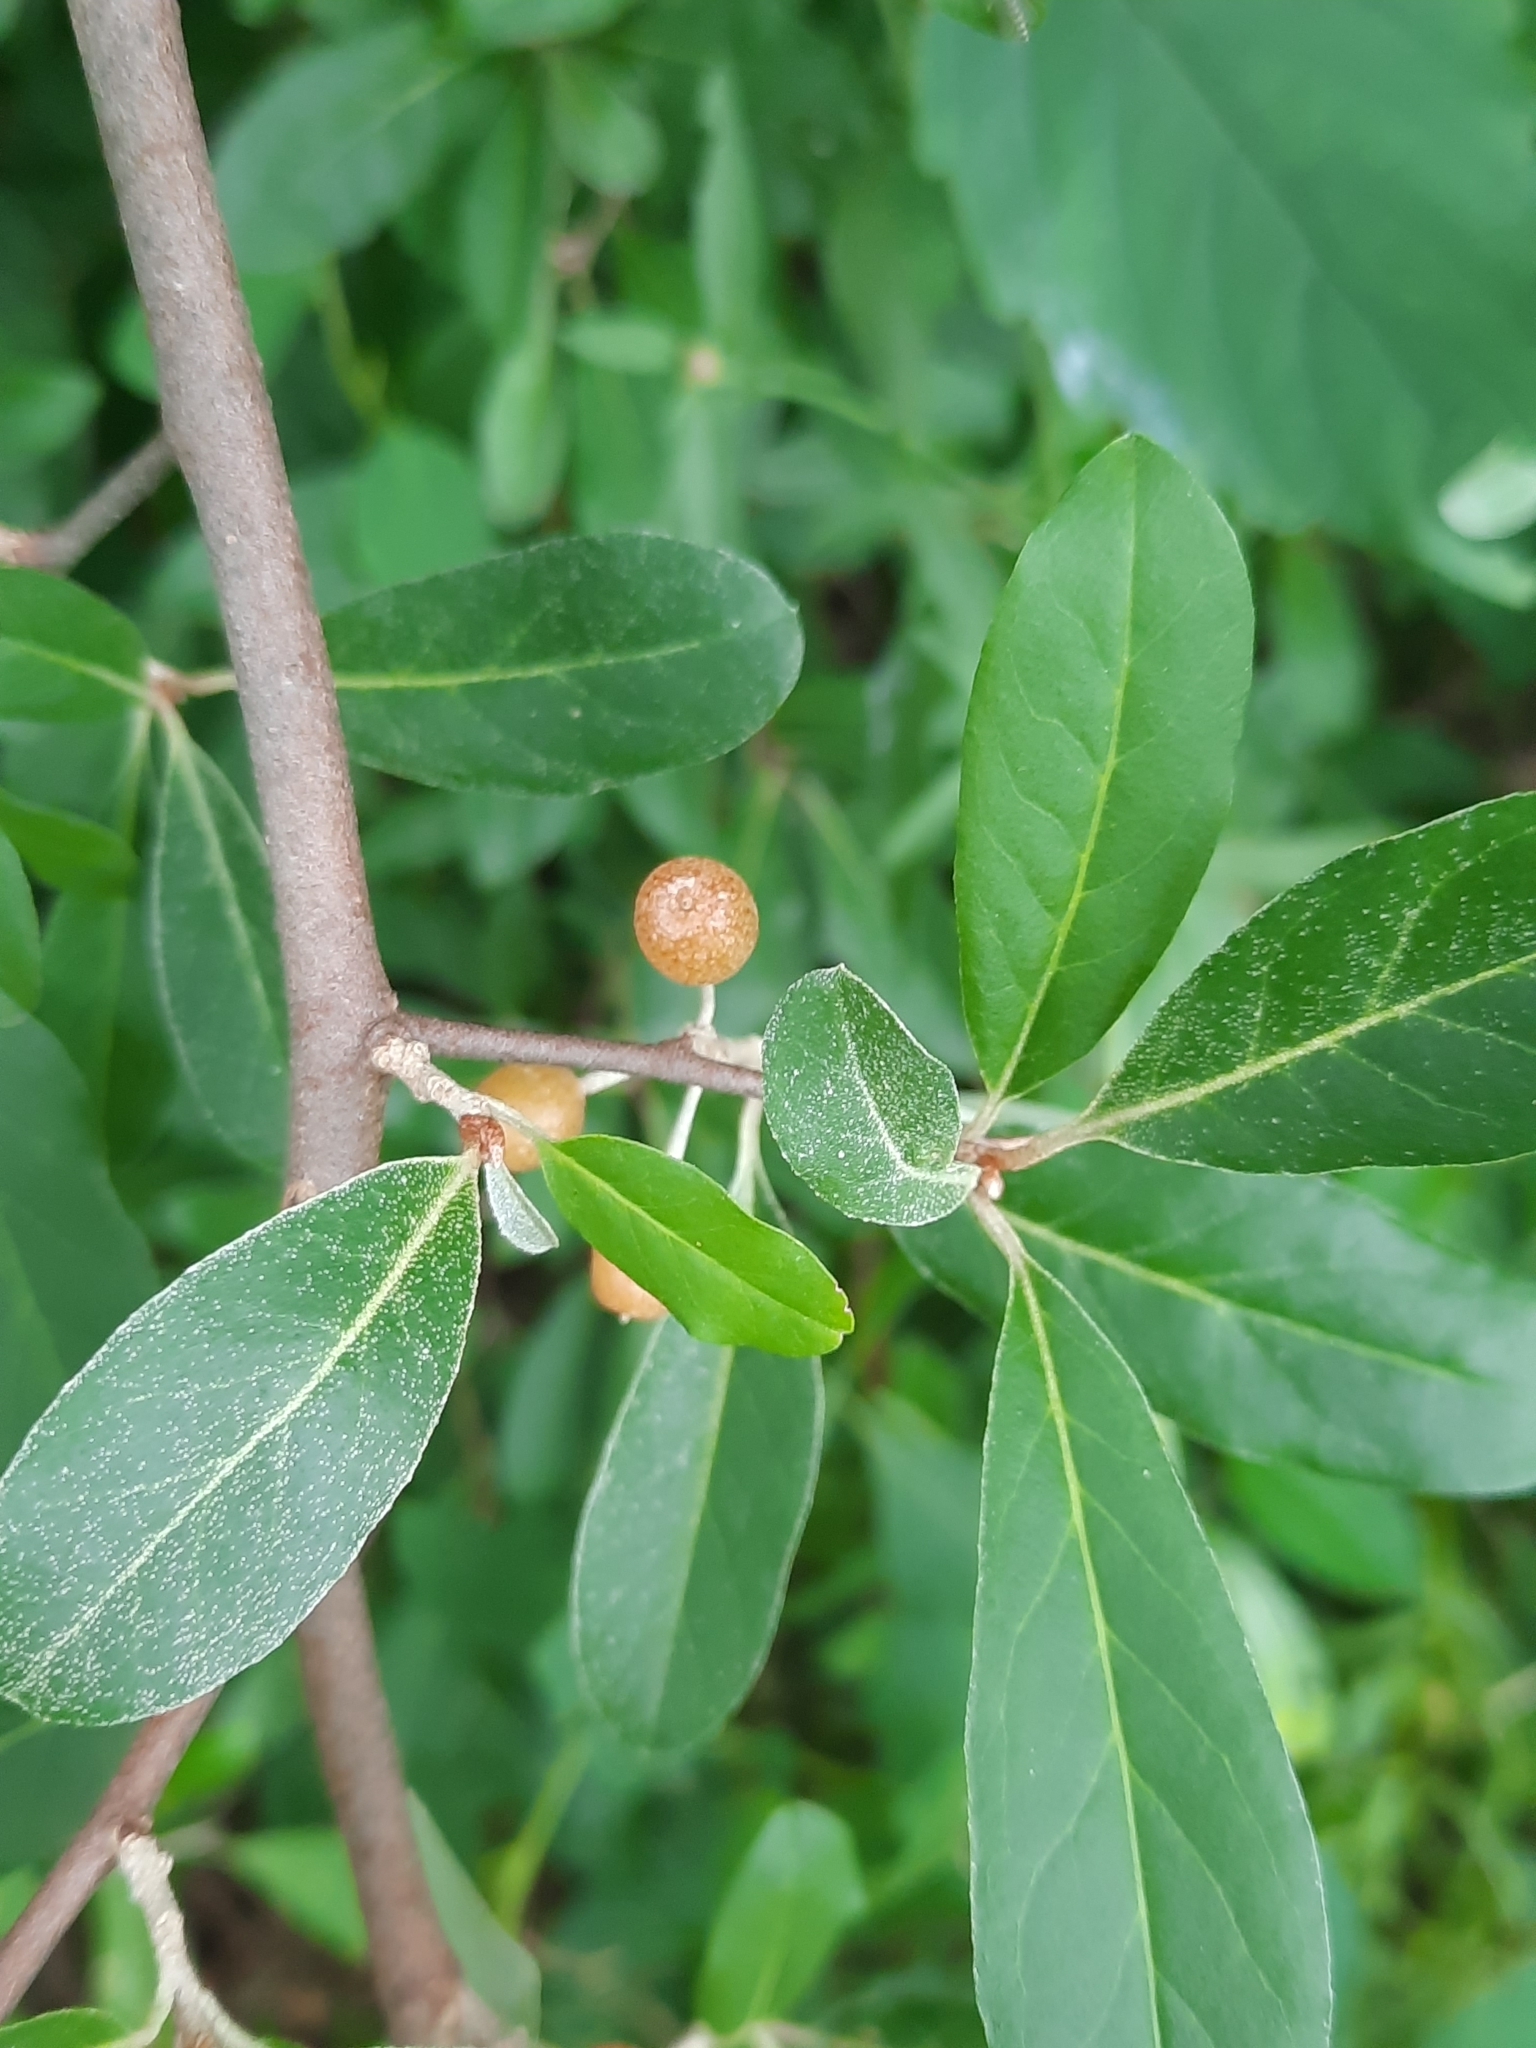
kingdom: Plantae
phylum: Tracheophyta
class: Magnoliopsida
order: Rosales
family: Elaeagnaceae
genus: Elaeagnus
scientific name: Elaeagnus umbellata
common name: Autumn olive
